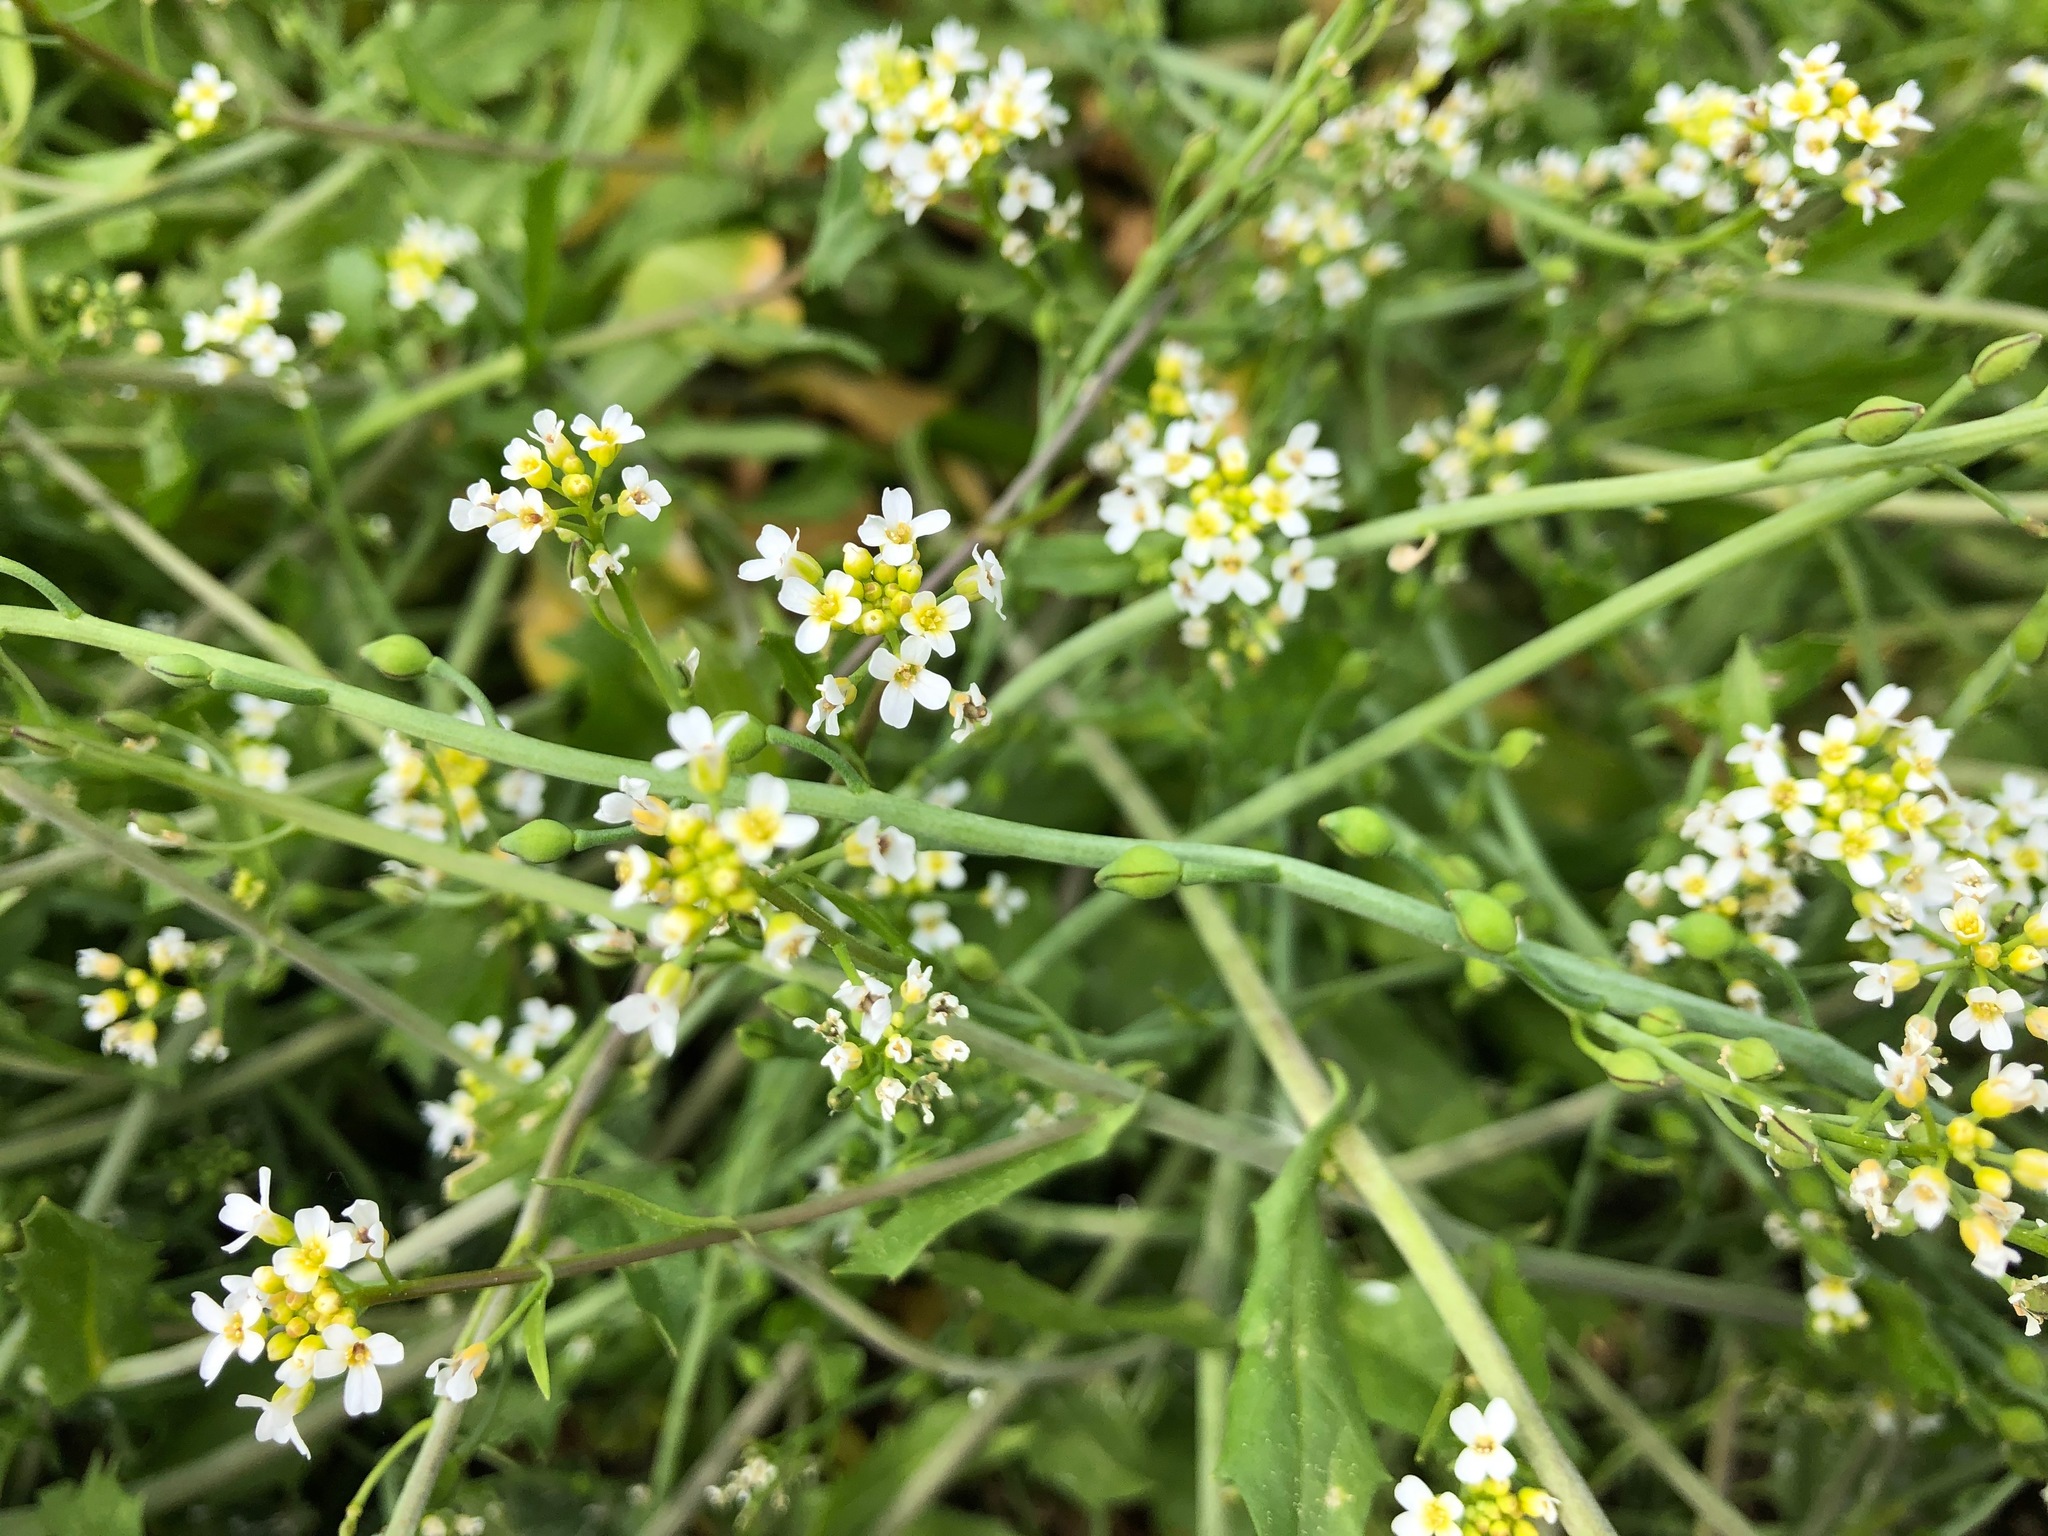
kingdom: Plantae
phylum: Tracheophyta
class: Magnoliopsida
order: Brassicales
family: Brassicaceae
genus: Calepina
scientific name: Calepina irregularis
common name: White ballmustard
